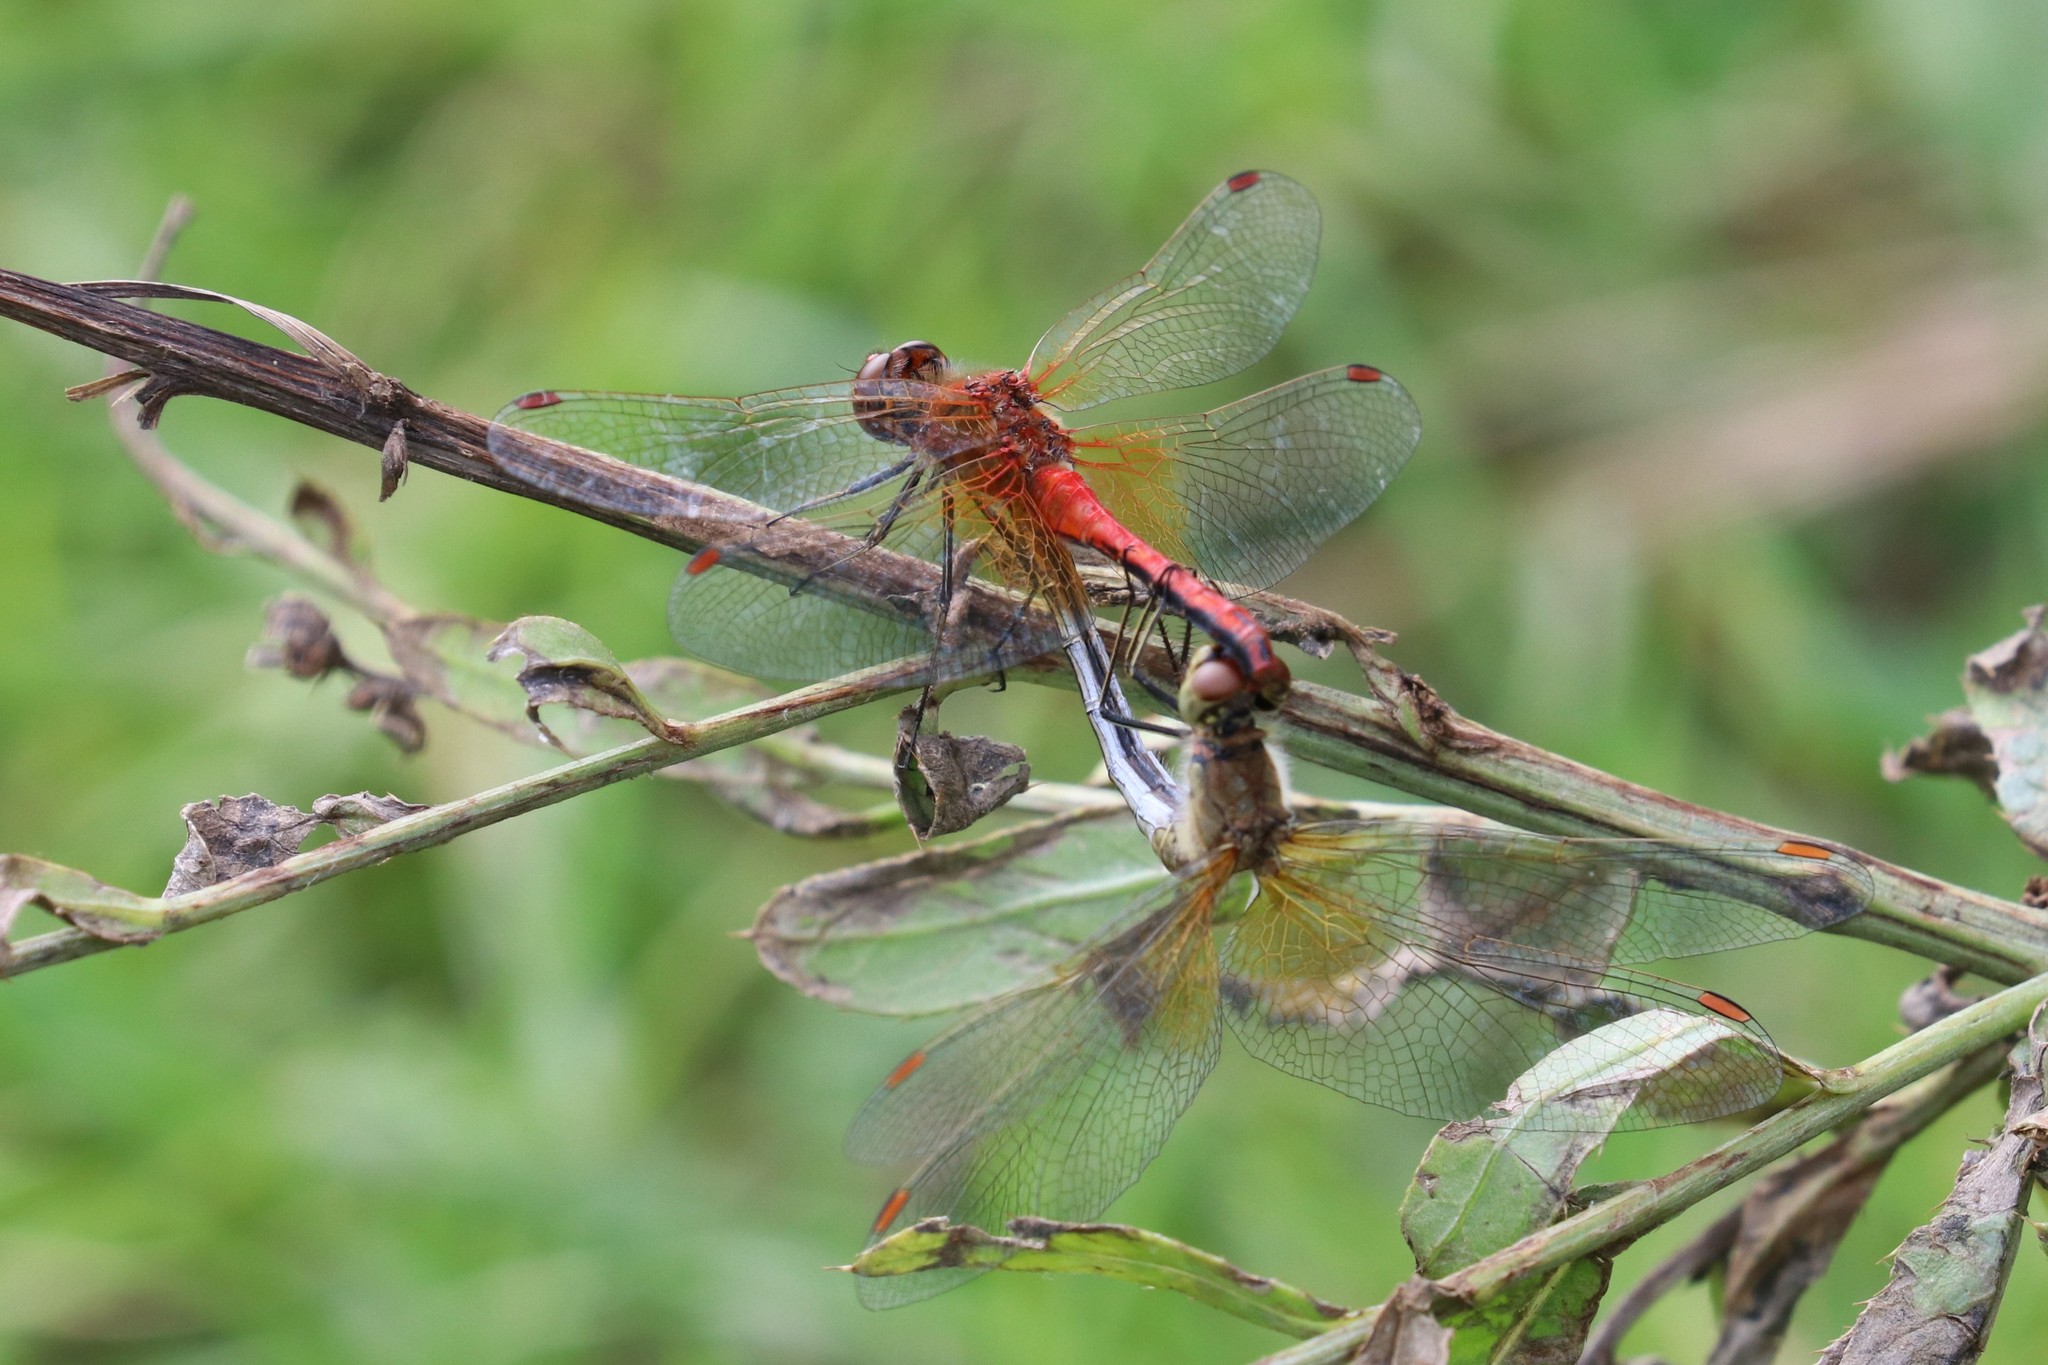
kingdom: Animalia
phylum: Arthropoda
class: Insecta
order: Odonata
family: Libellulidae
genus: Sympetrum
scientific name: Sympetrum flaveolum
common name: Yellow-winged darter
